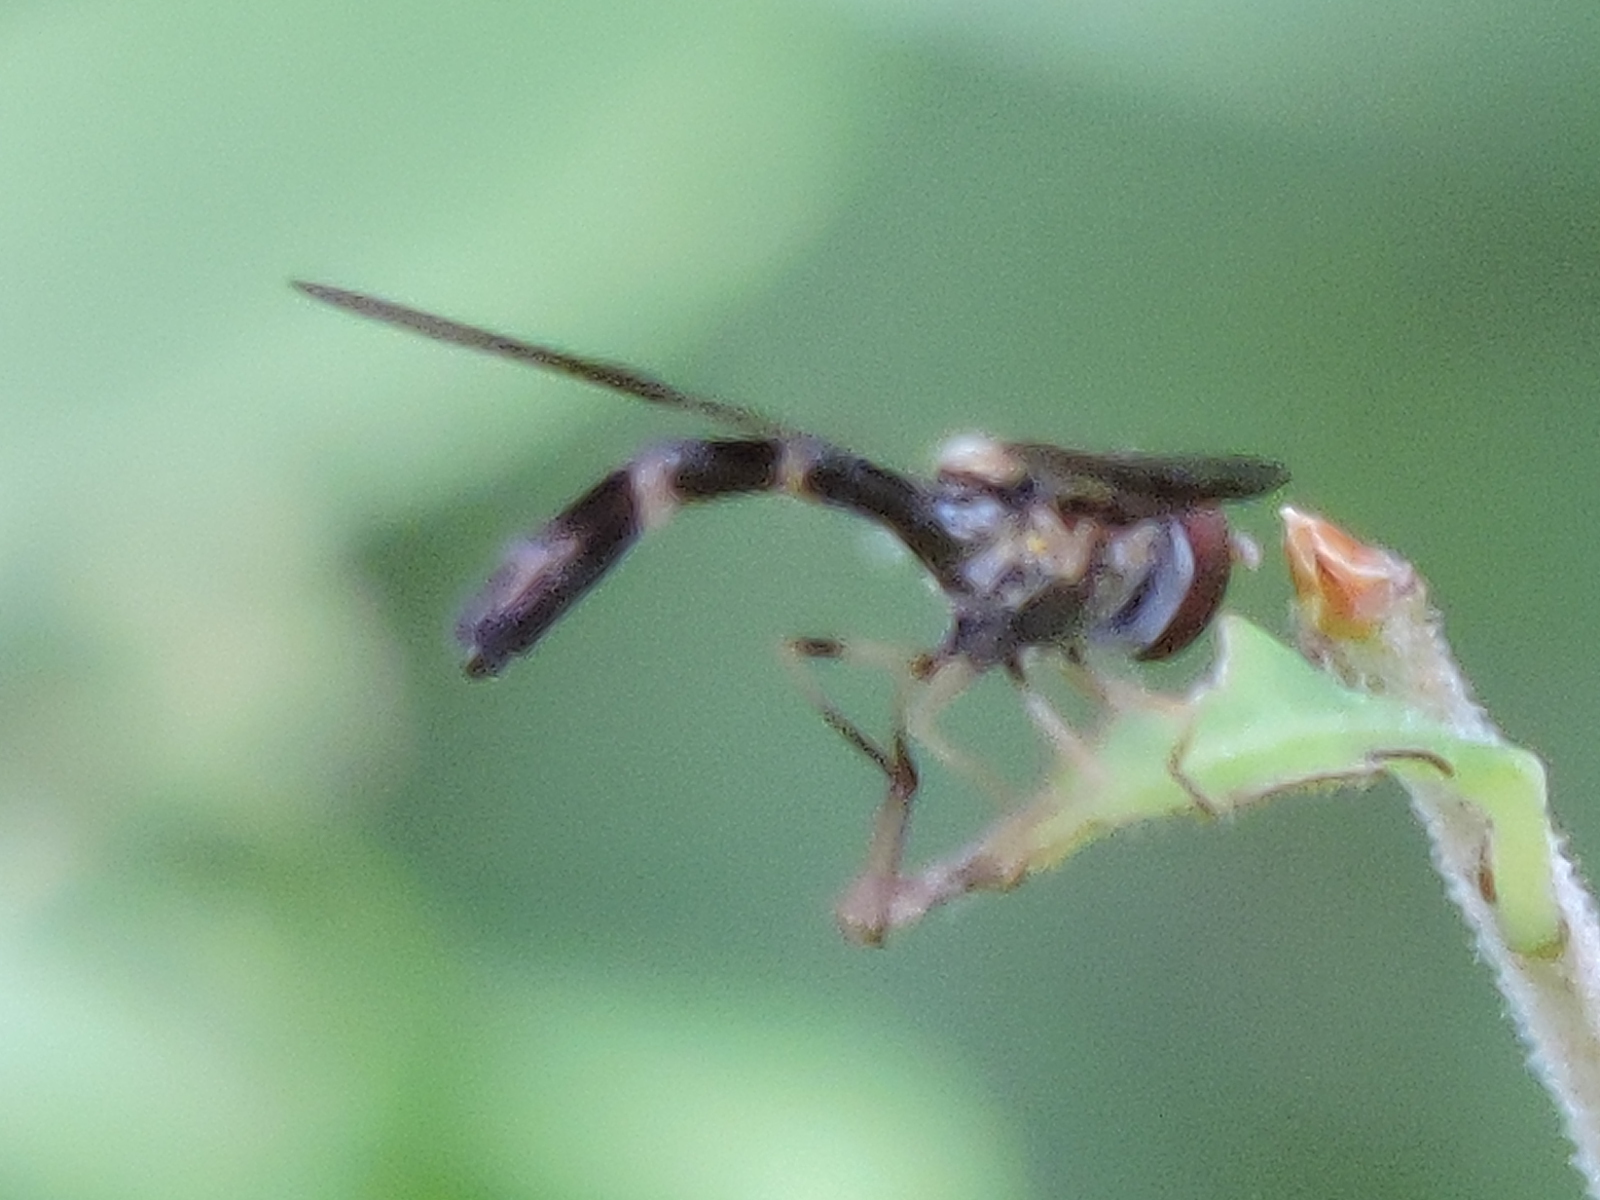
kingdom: Animalia
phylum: Arthropoda
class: Insecta
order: Diptera
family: Syrphidae
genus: Hypocritanus
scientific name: Hypocritanus fascipennis
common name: Eastern band-winged hover fly
